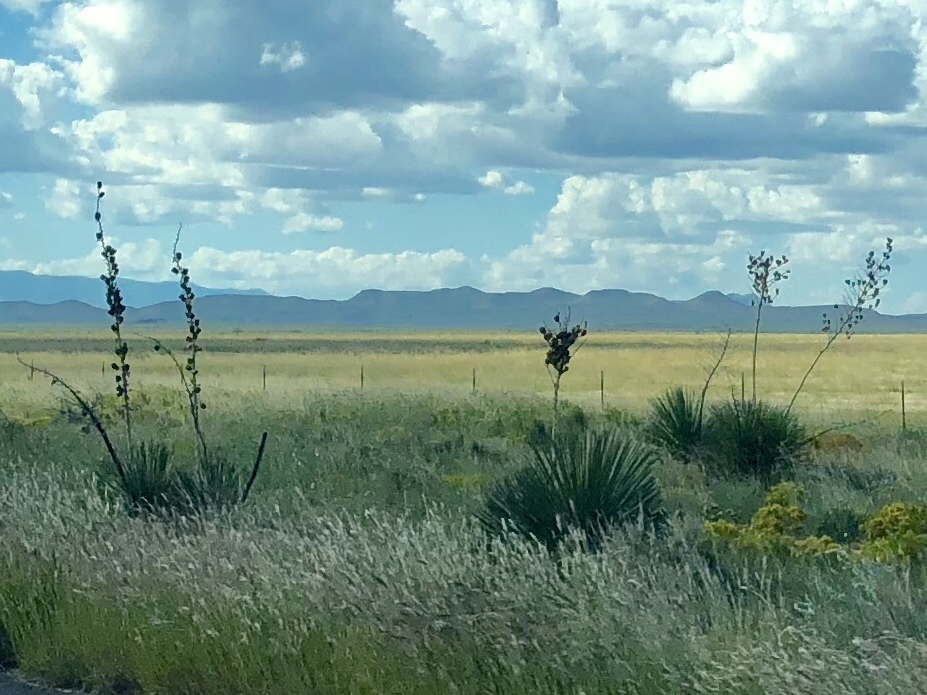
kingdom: Plantae
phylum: Tracheophyta
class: Liliopsida
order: Asparagales
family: Asparagaceae
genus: Yucca
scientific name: Yucca elata
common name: Palmella
